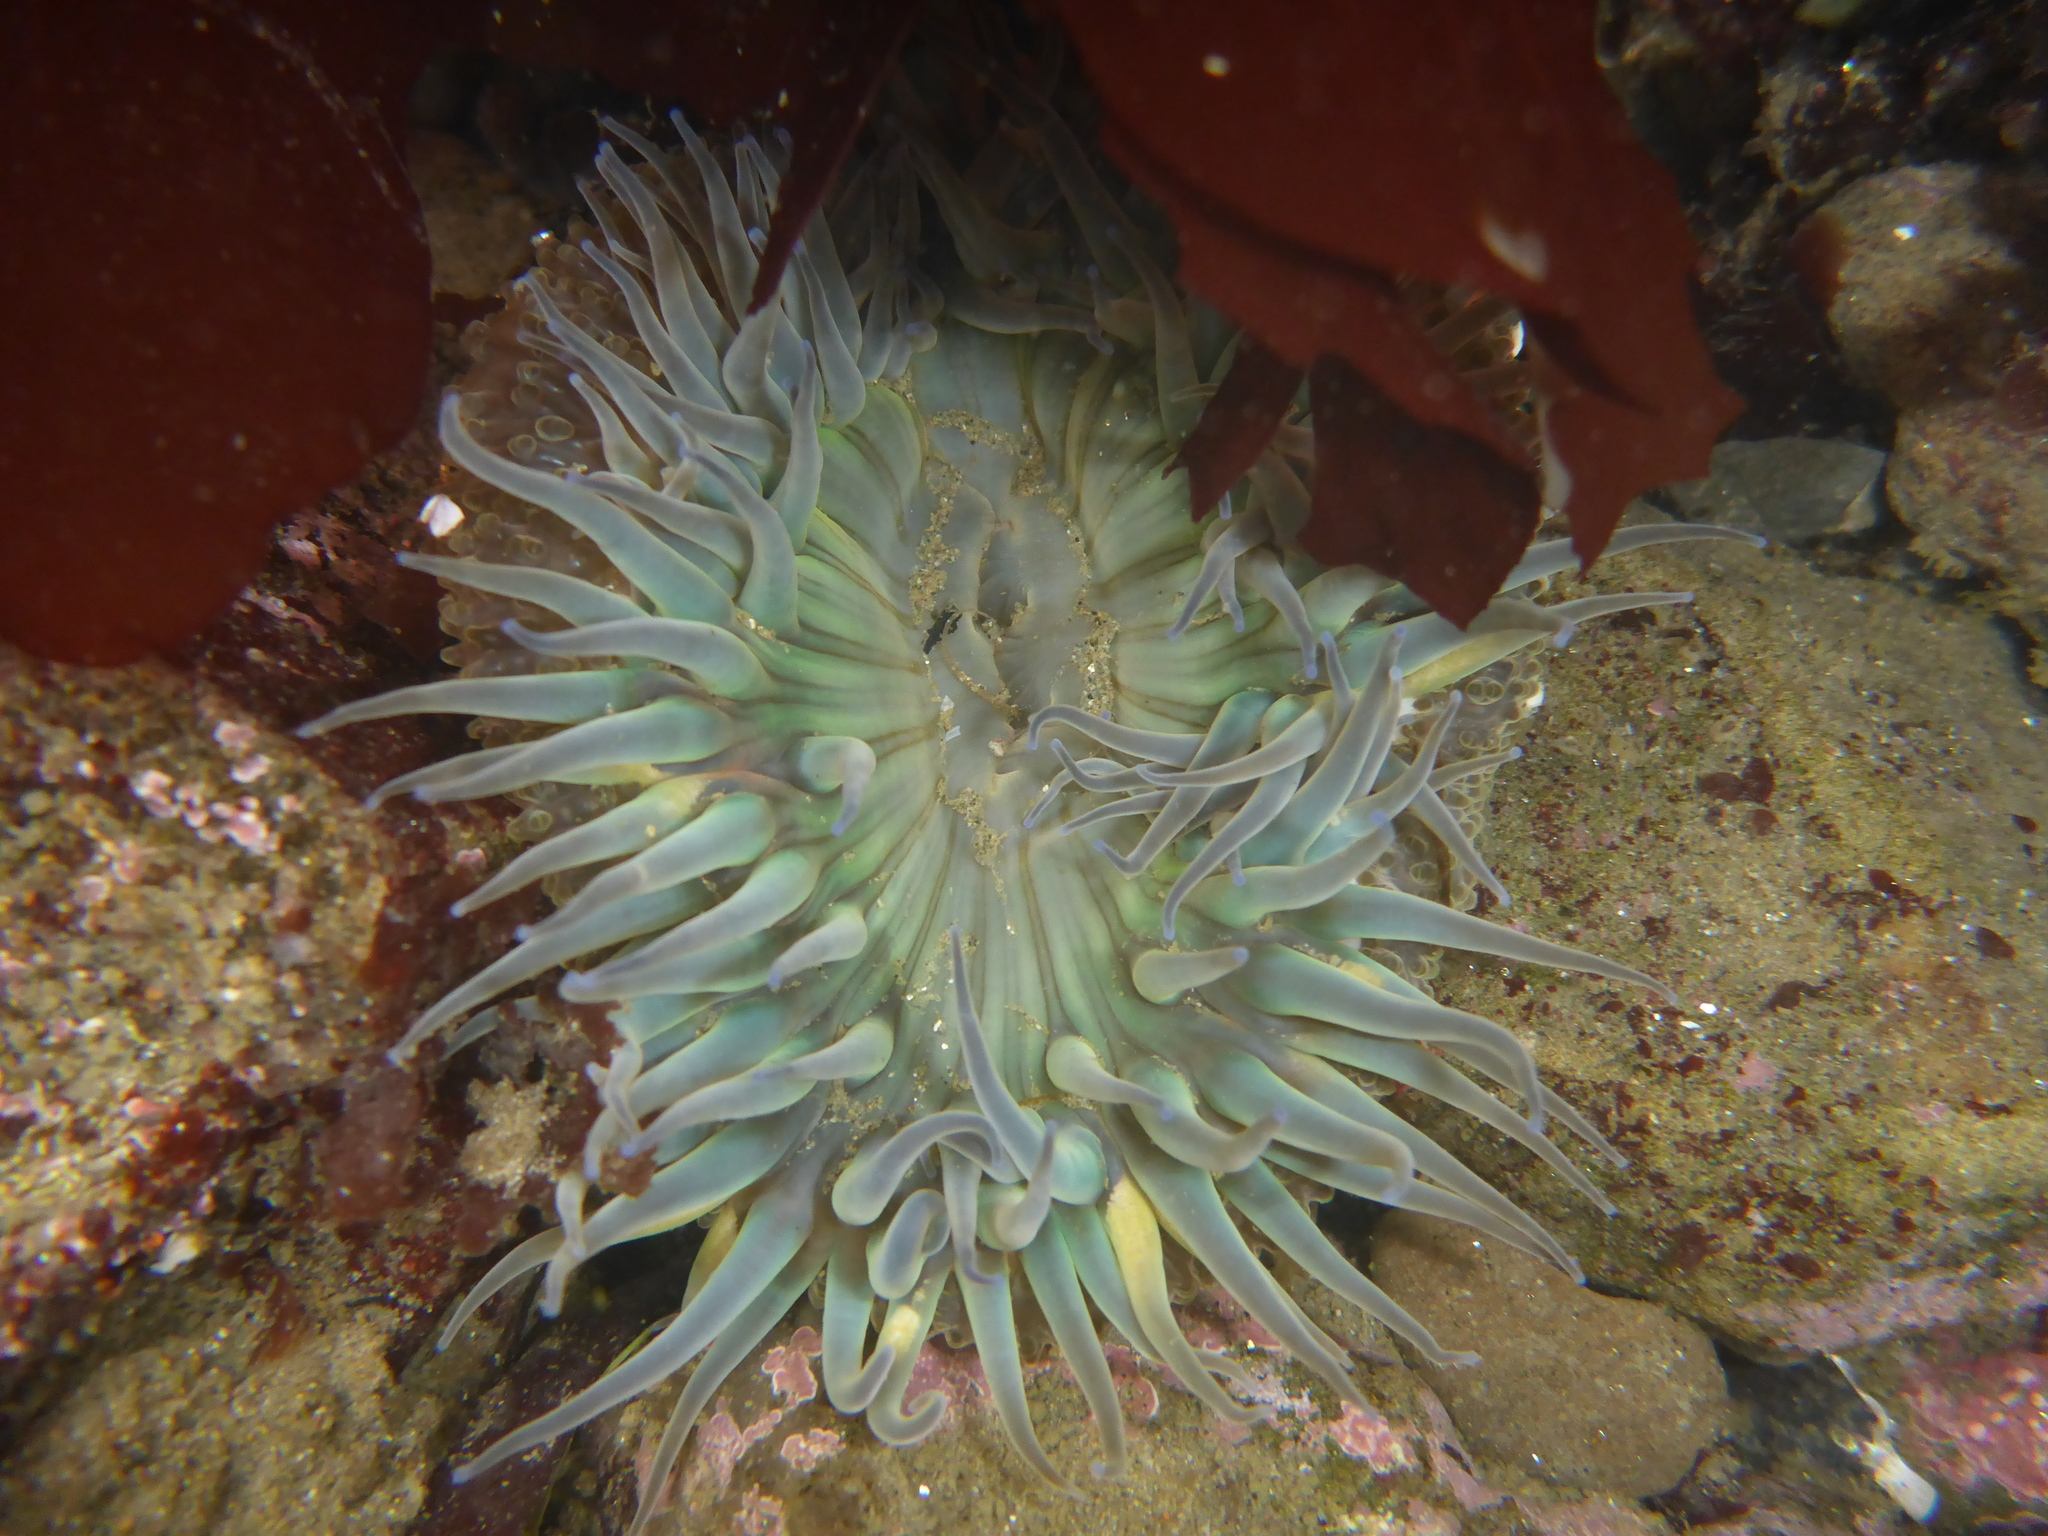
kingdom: Animalia
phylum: Cnidaria
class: Anthozoa
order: Actiniaria
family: Actiniidae
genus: Anthopleura
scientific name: Anthopleura sola
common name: Sun anemone
